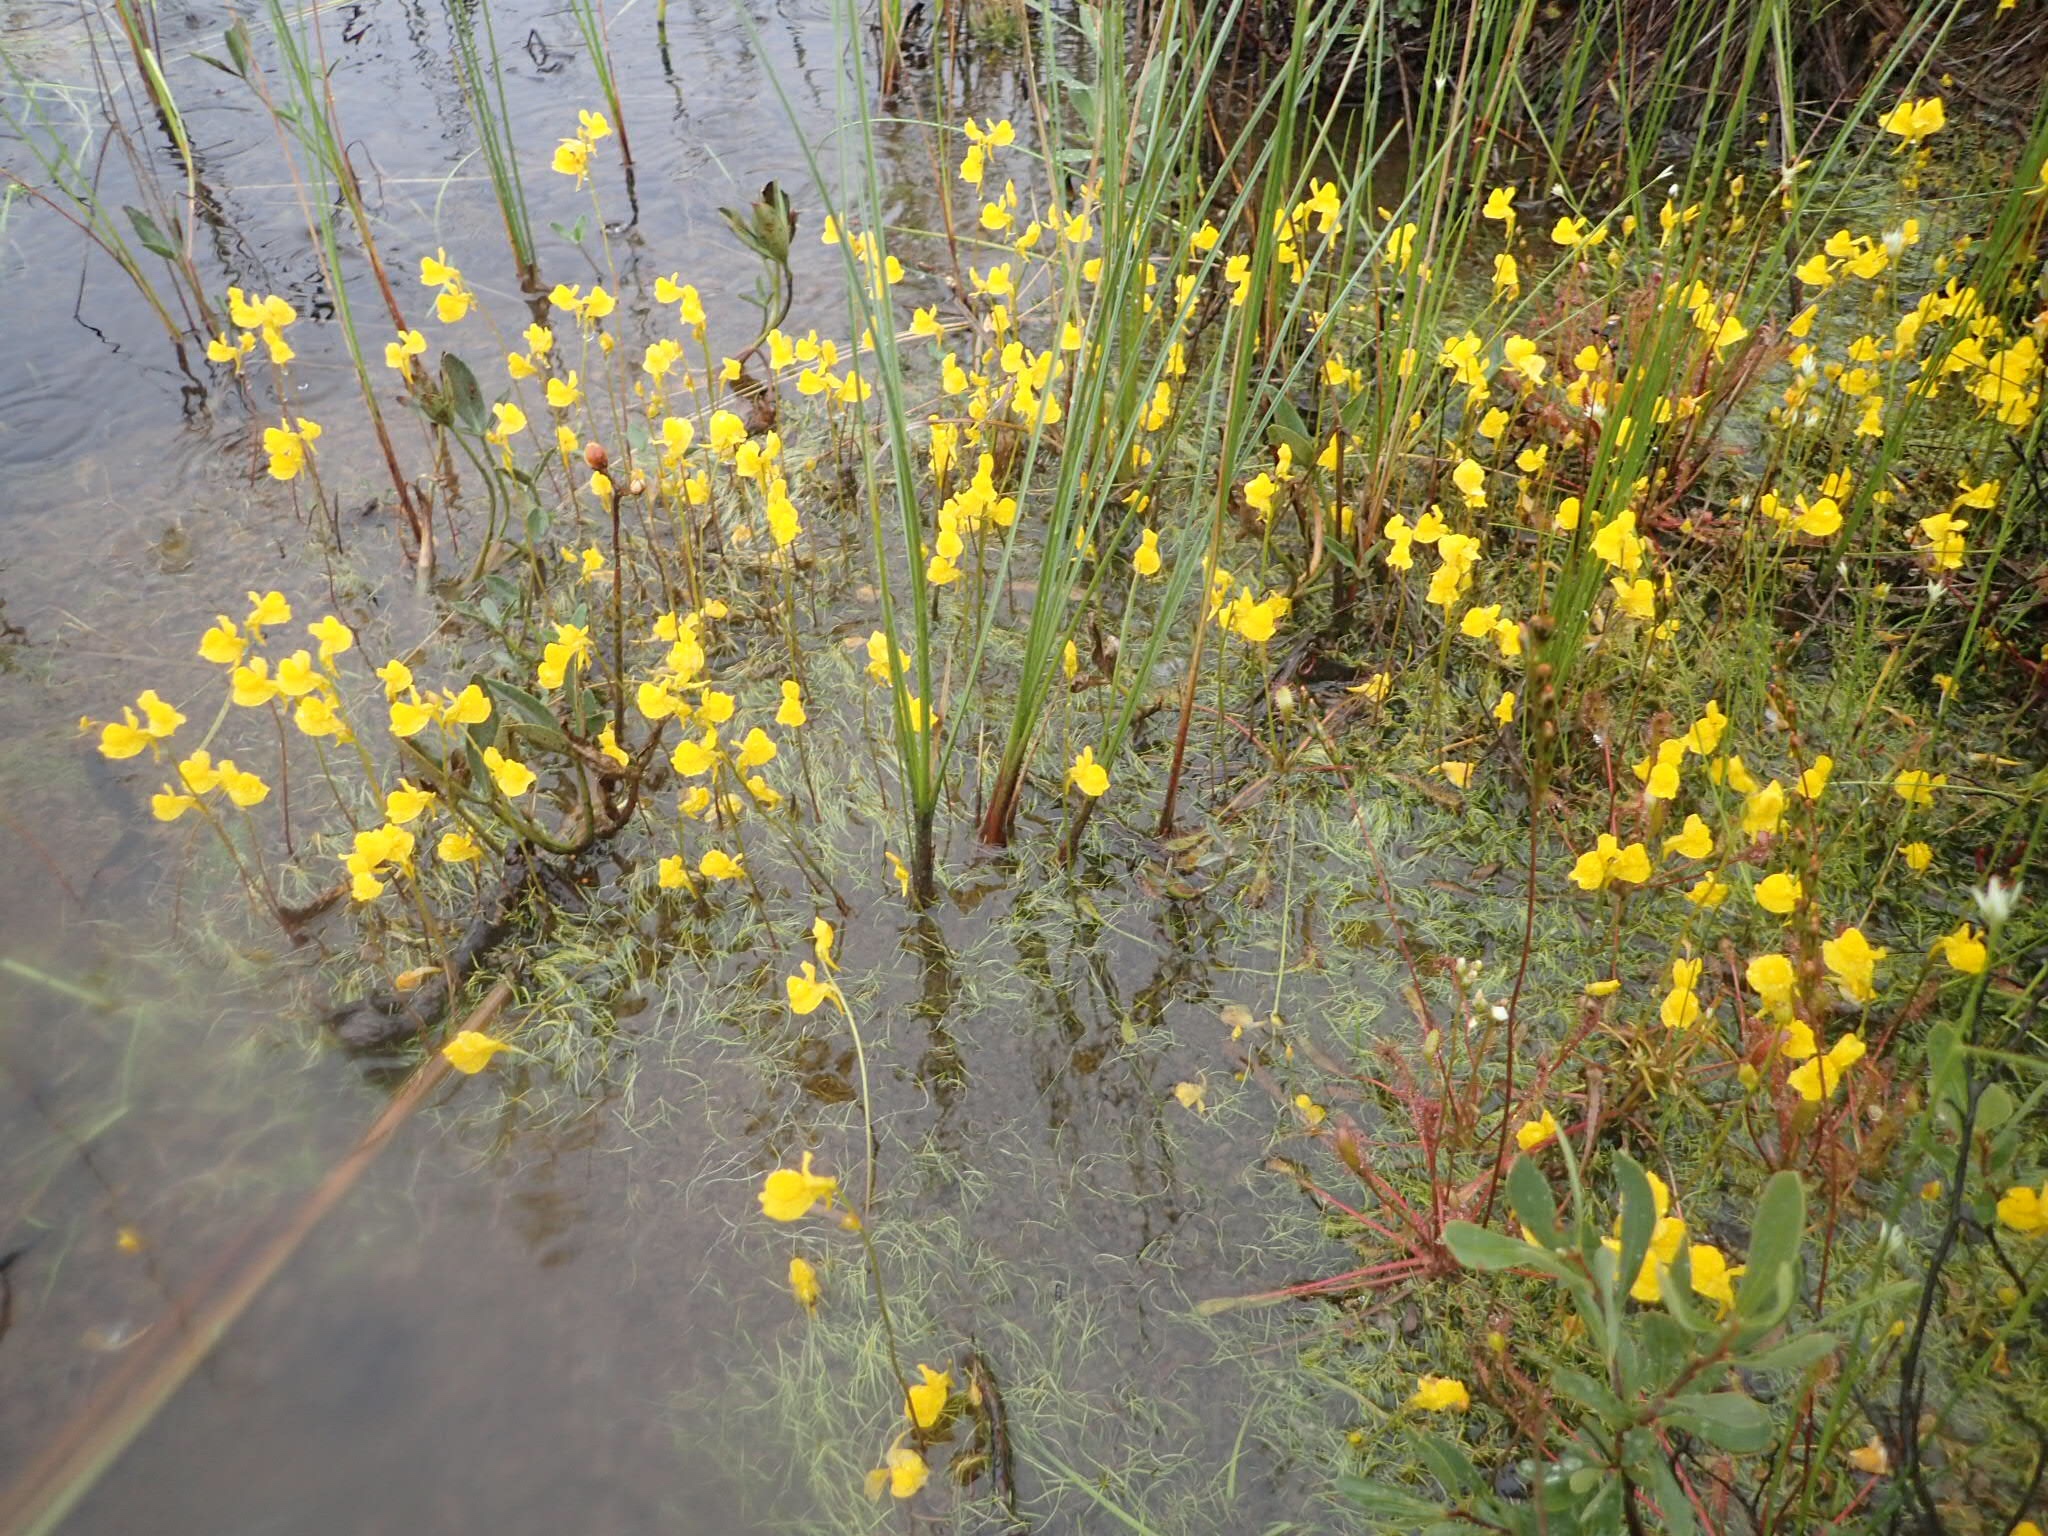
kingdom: Plantae
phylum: Tracheophyta
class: Magnoliopsida
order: Lamiales
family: Lentibulariaceae
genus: Utricularia
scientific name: Utricularia cornuta
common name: Horned bladderwort
